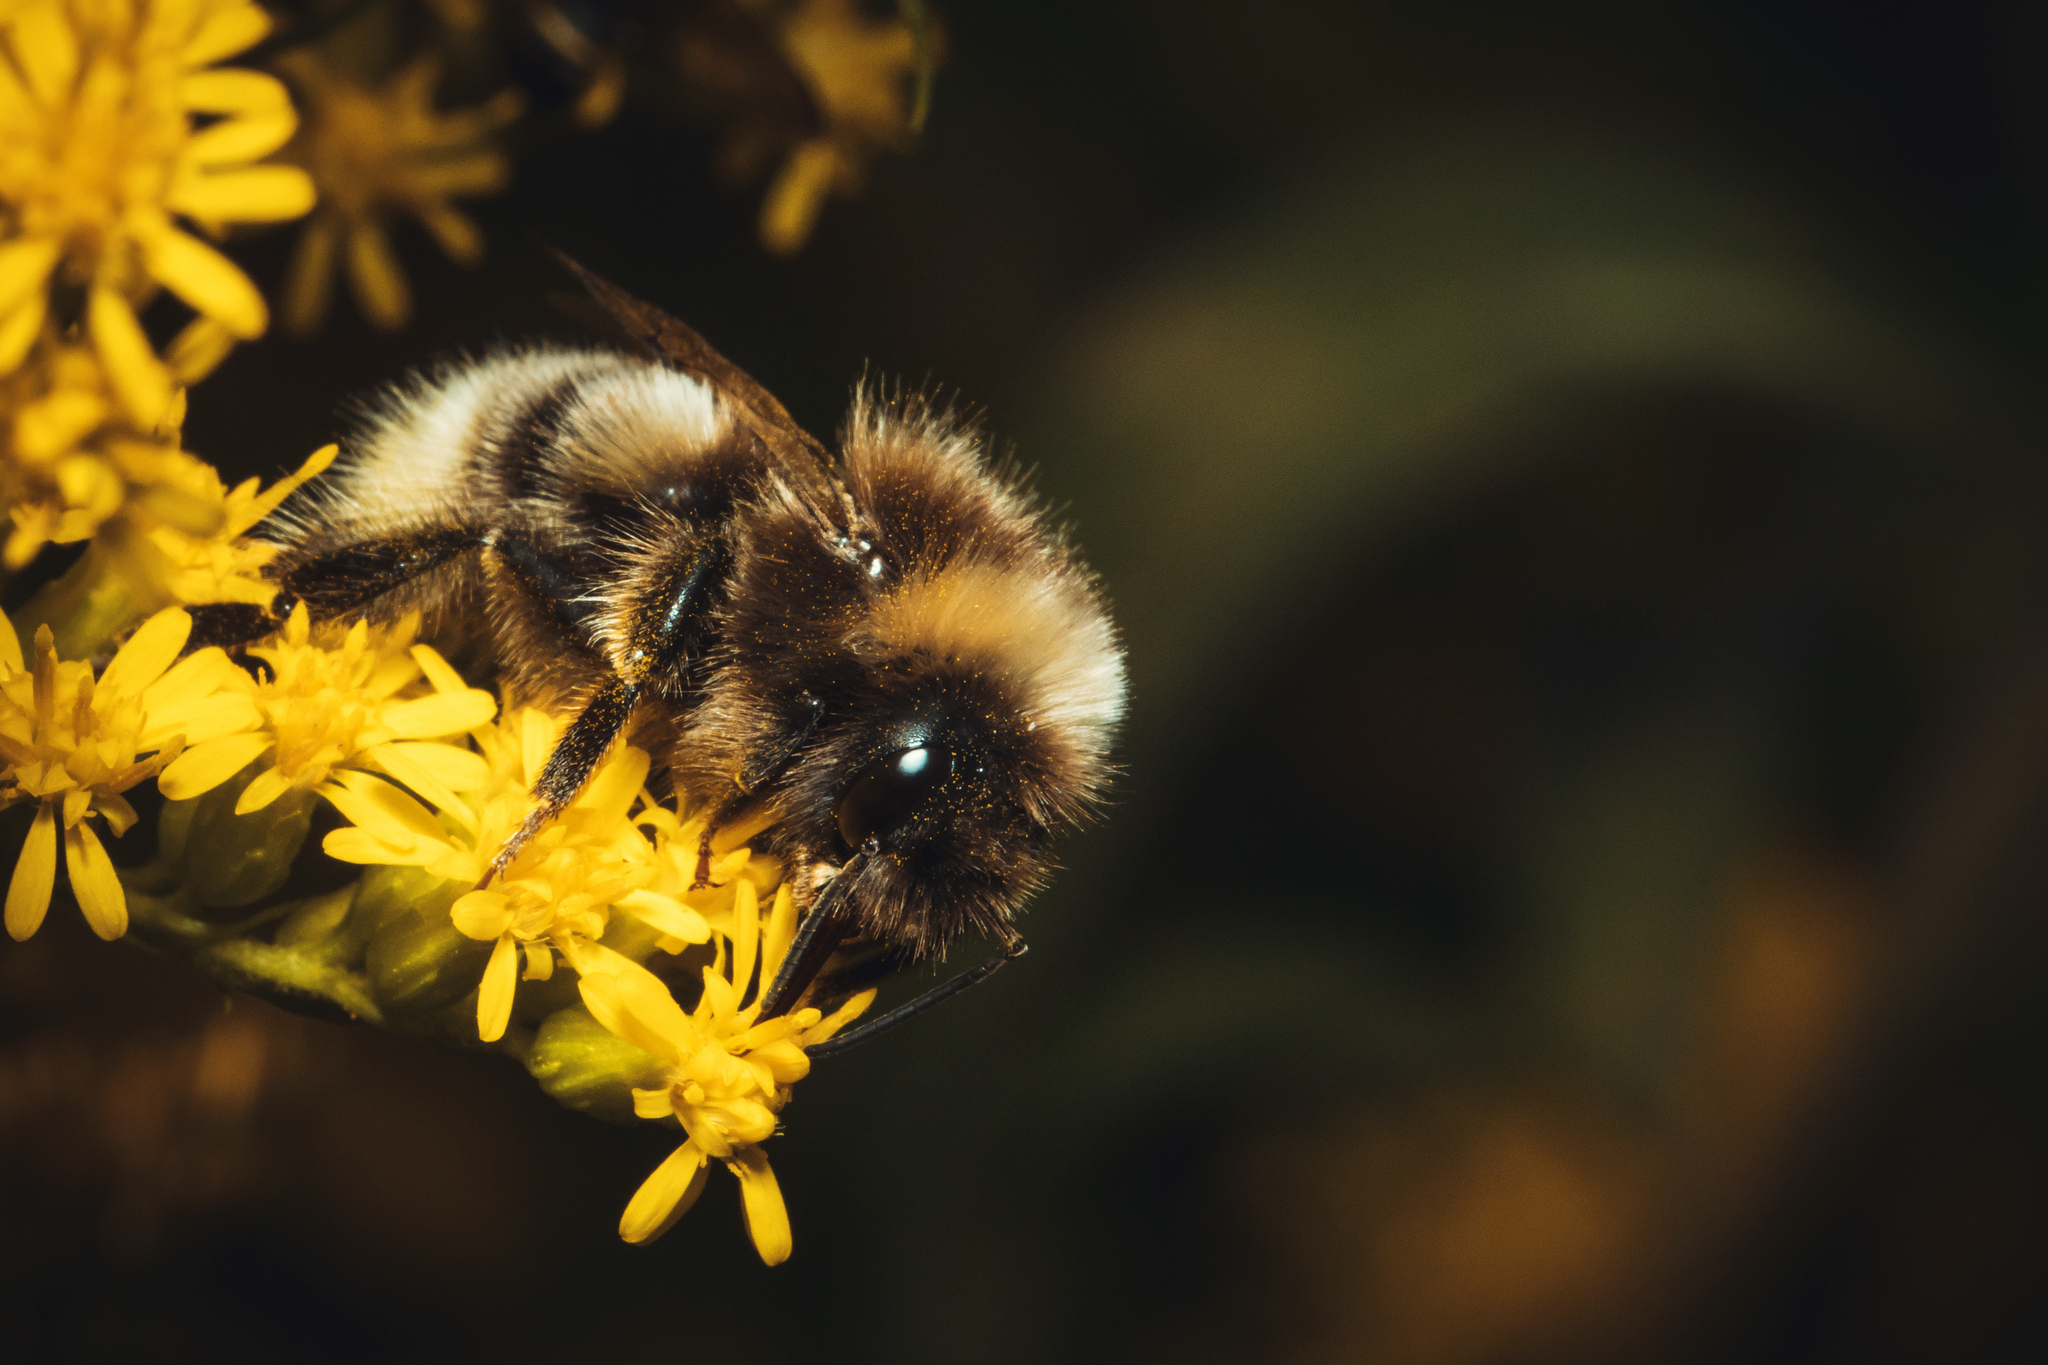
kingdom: Animalia
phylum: Arthropoda
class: Insecta
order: Hymenoptera
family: Apidae
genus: Bombus
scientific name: Bombus
